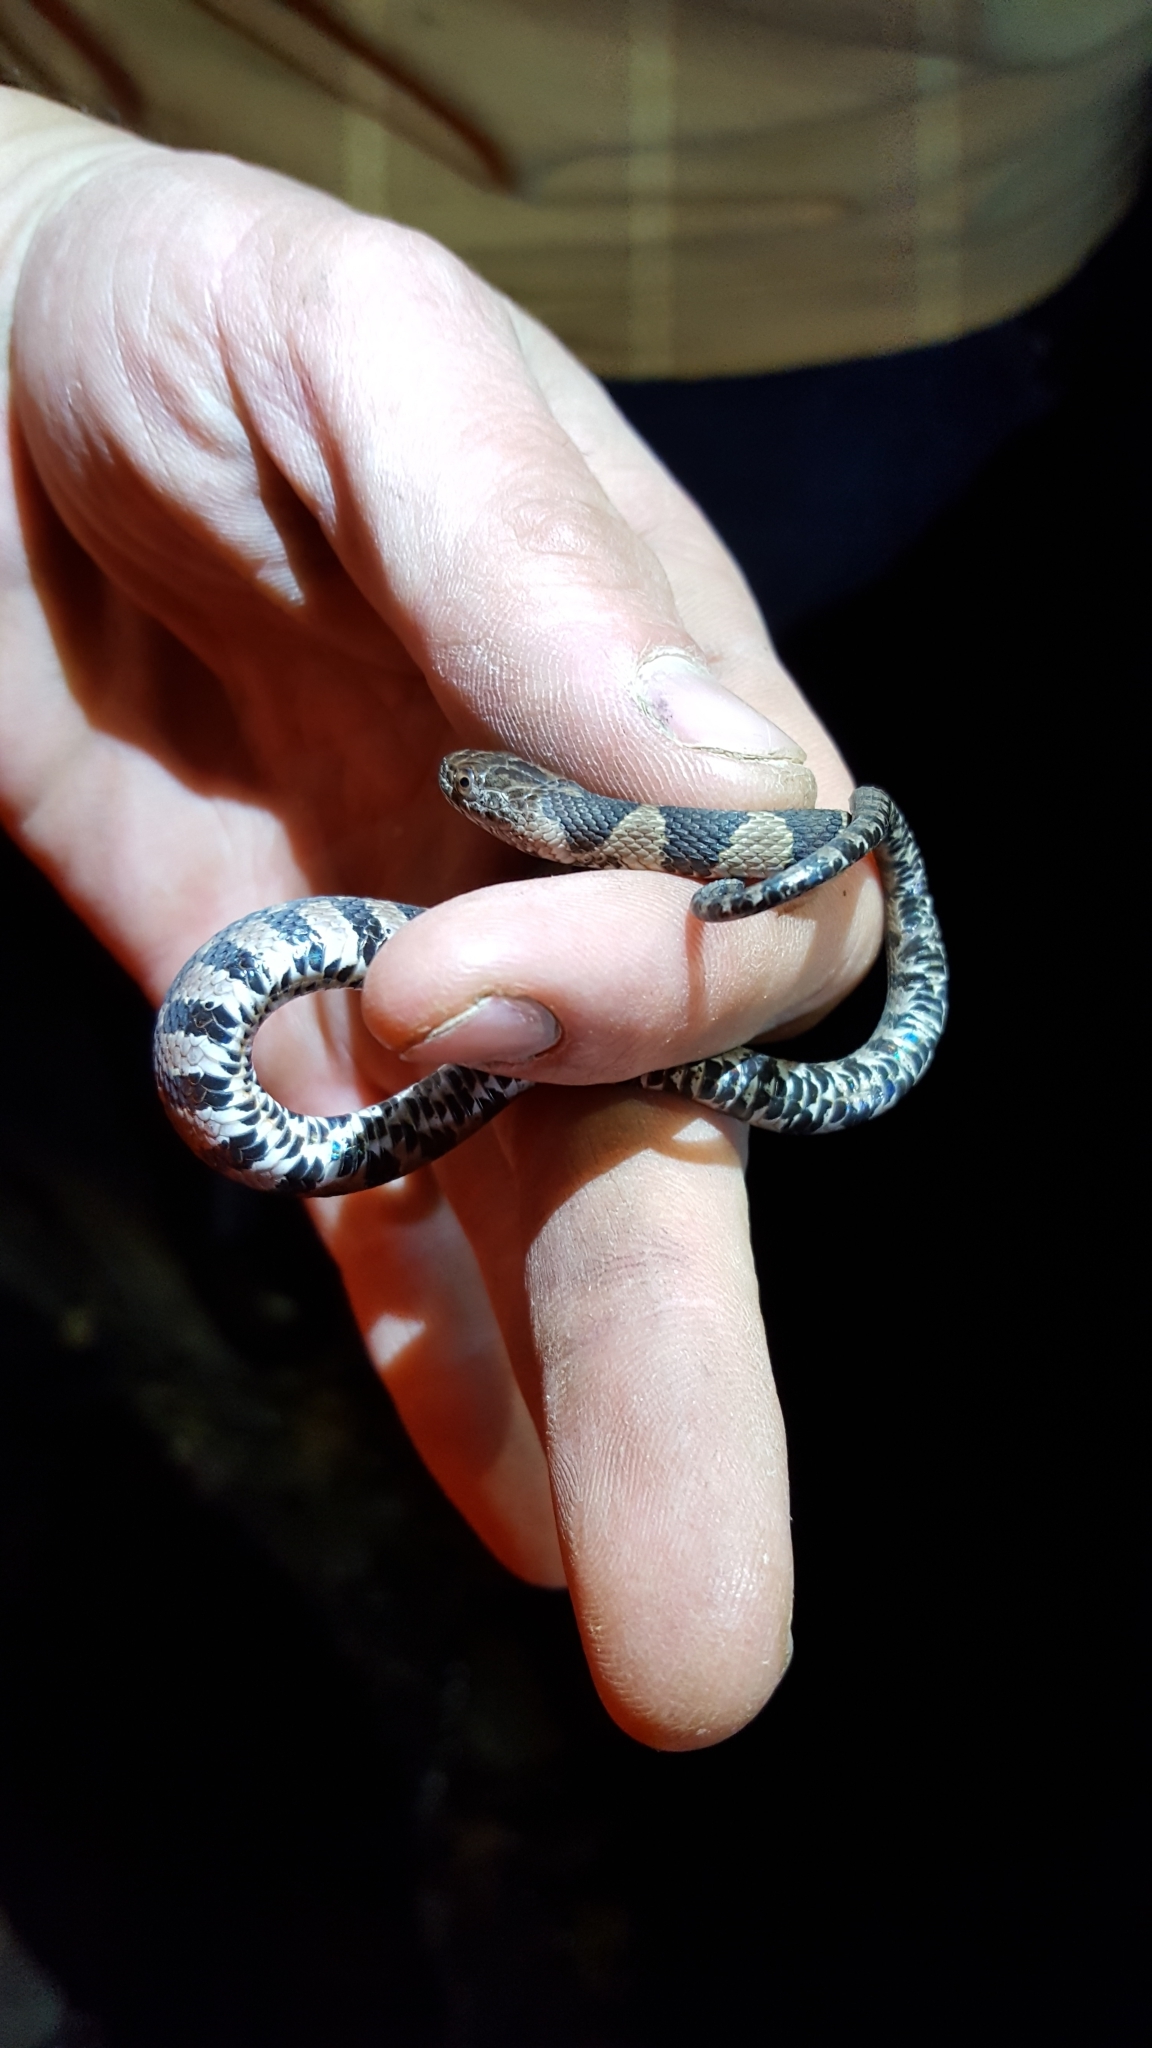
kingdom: Animalia
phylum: Chordata
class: Squamata
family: Colubridae
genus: Nerodia
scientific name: Nerodia sipedon
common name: Northern water snake
